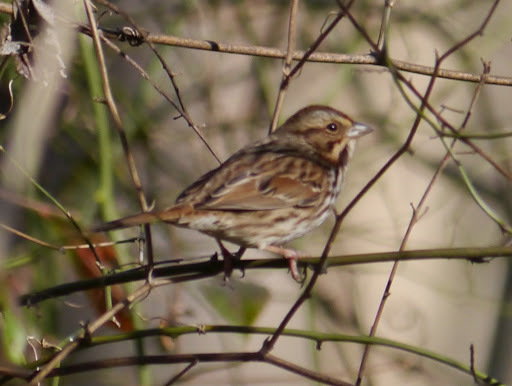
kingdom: Animalia
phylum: Chordata
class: Aves
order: Passeriformes
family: Passerellidae
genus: Melospiza
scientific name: Melospiza melodia
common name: Song sparrow
